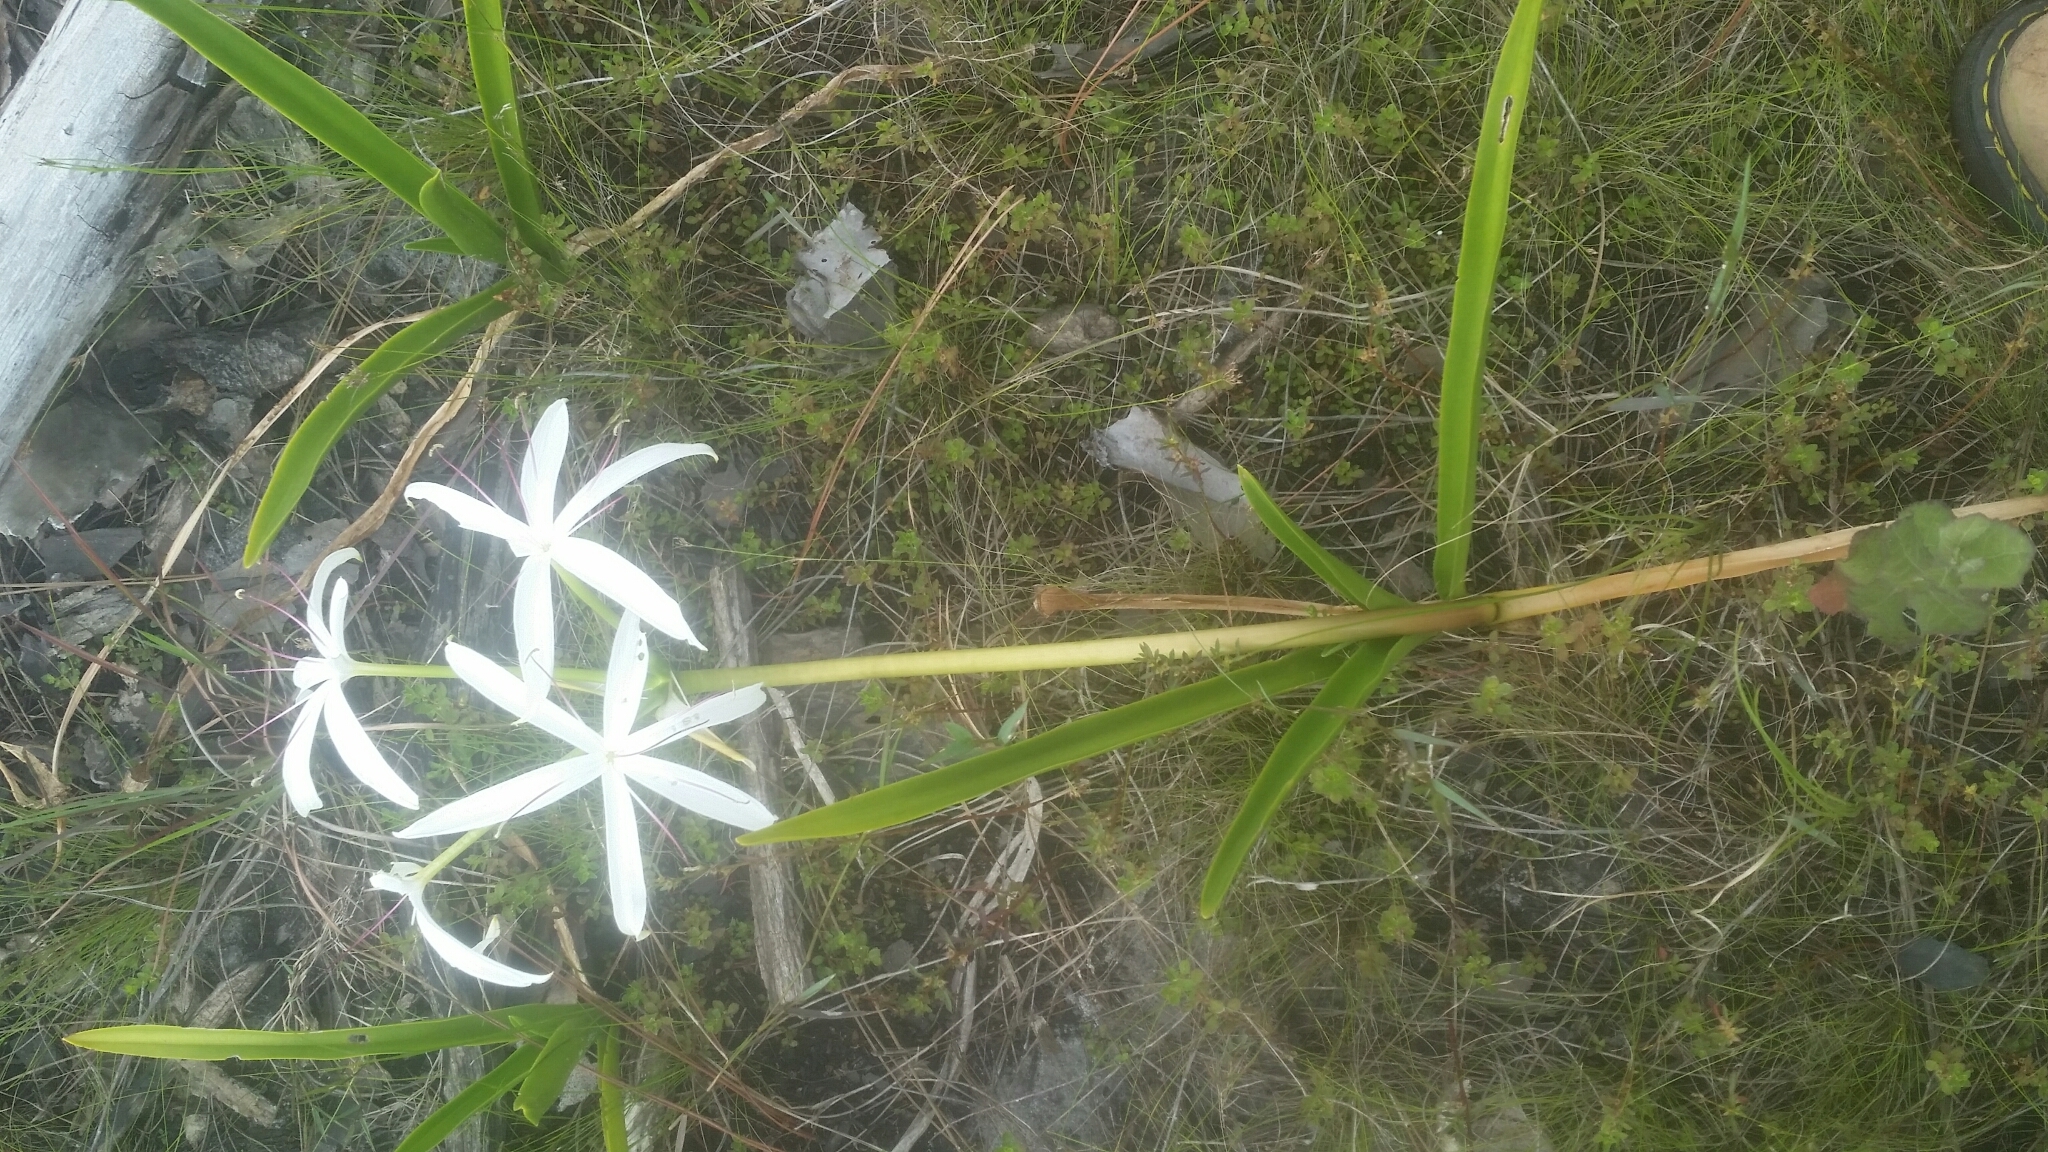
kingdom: Plantae
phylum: Tracheophyta
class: Liliopsida
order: Asparagales
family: Amaryllidaceae
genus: Crinum
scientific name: Crinum americanum
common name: Florida swamp-lily
